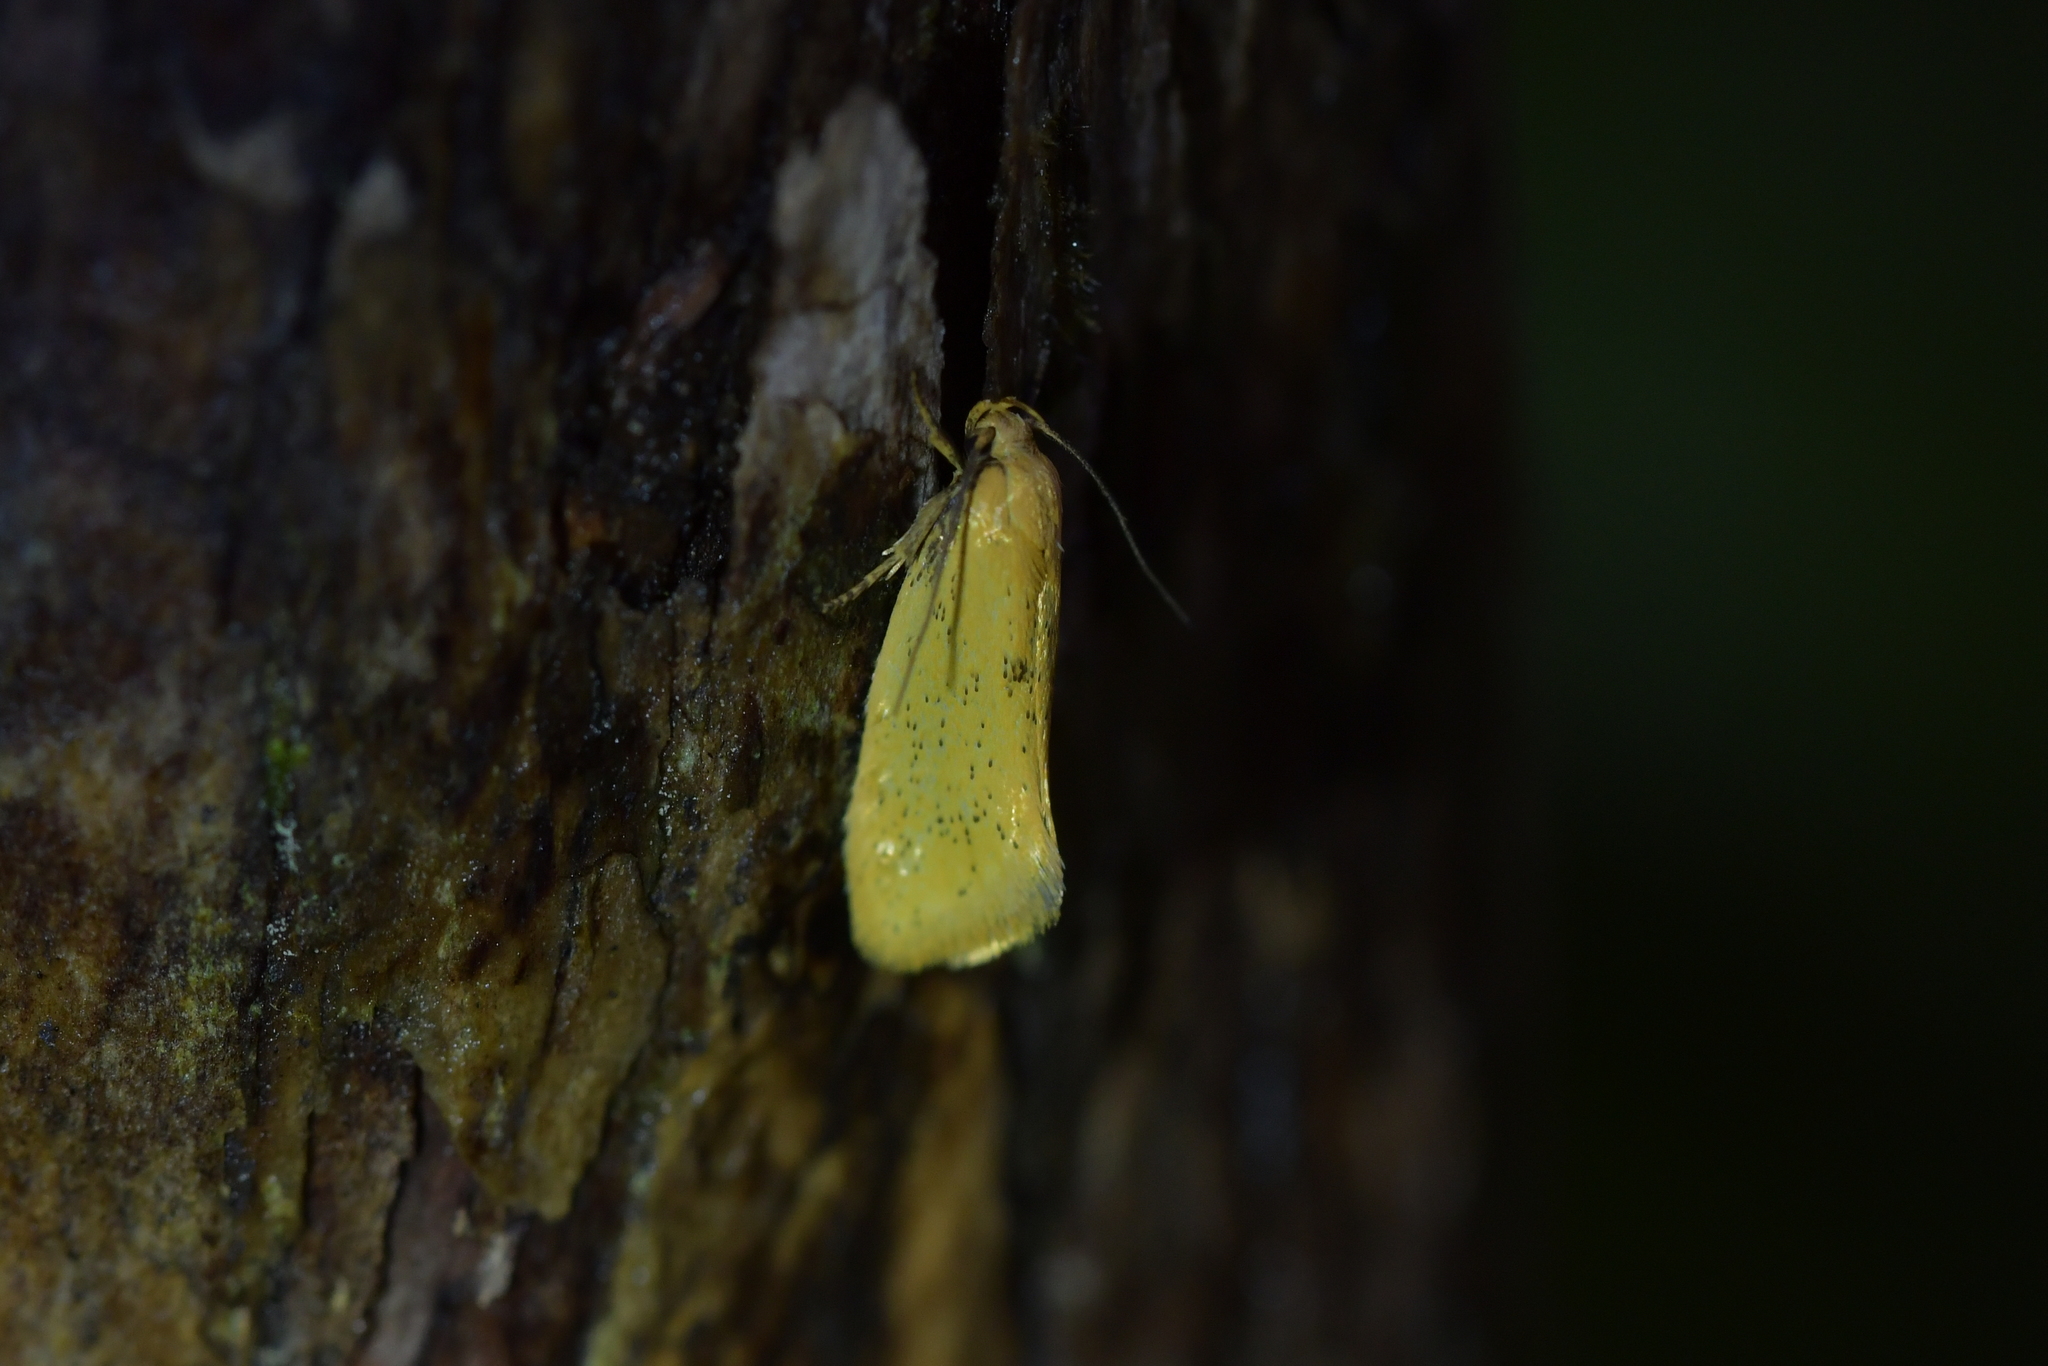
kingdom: Animalia
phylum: Arthropoda
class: Insecta
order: Lepidoptera
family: Oecophoridae
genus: Tingena
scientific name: Tingena armigerella
